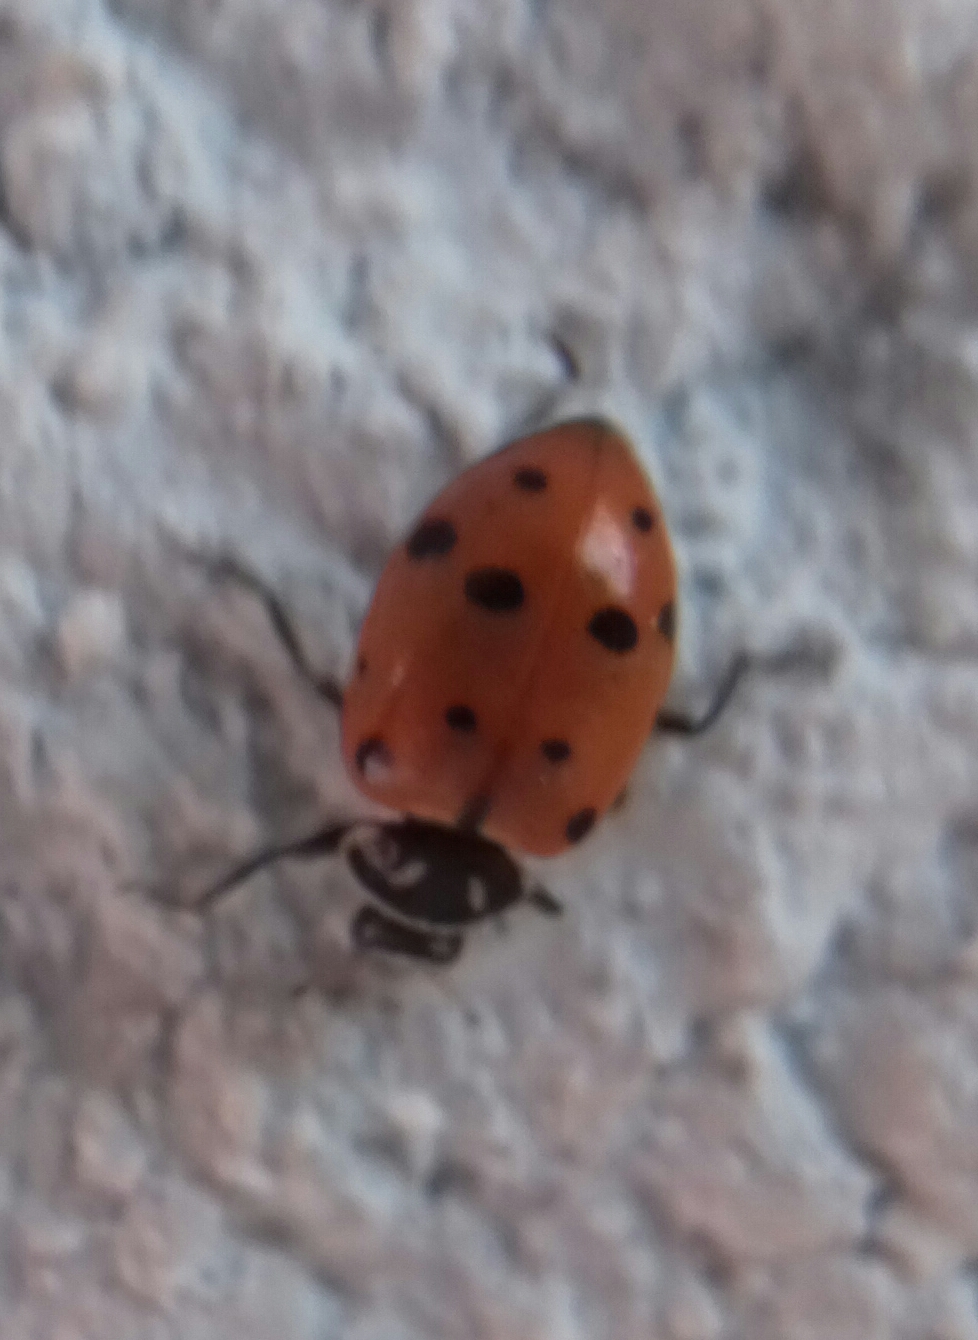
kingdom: Animalia
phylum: Arthropoda
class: Insecta
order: Coleoptera
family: Coccinellidae
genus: Hippodamia
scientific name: Hippodamia convergens
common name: Convergent lady beetle
